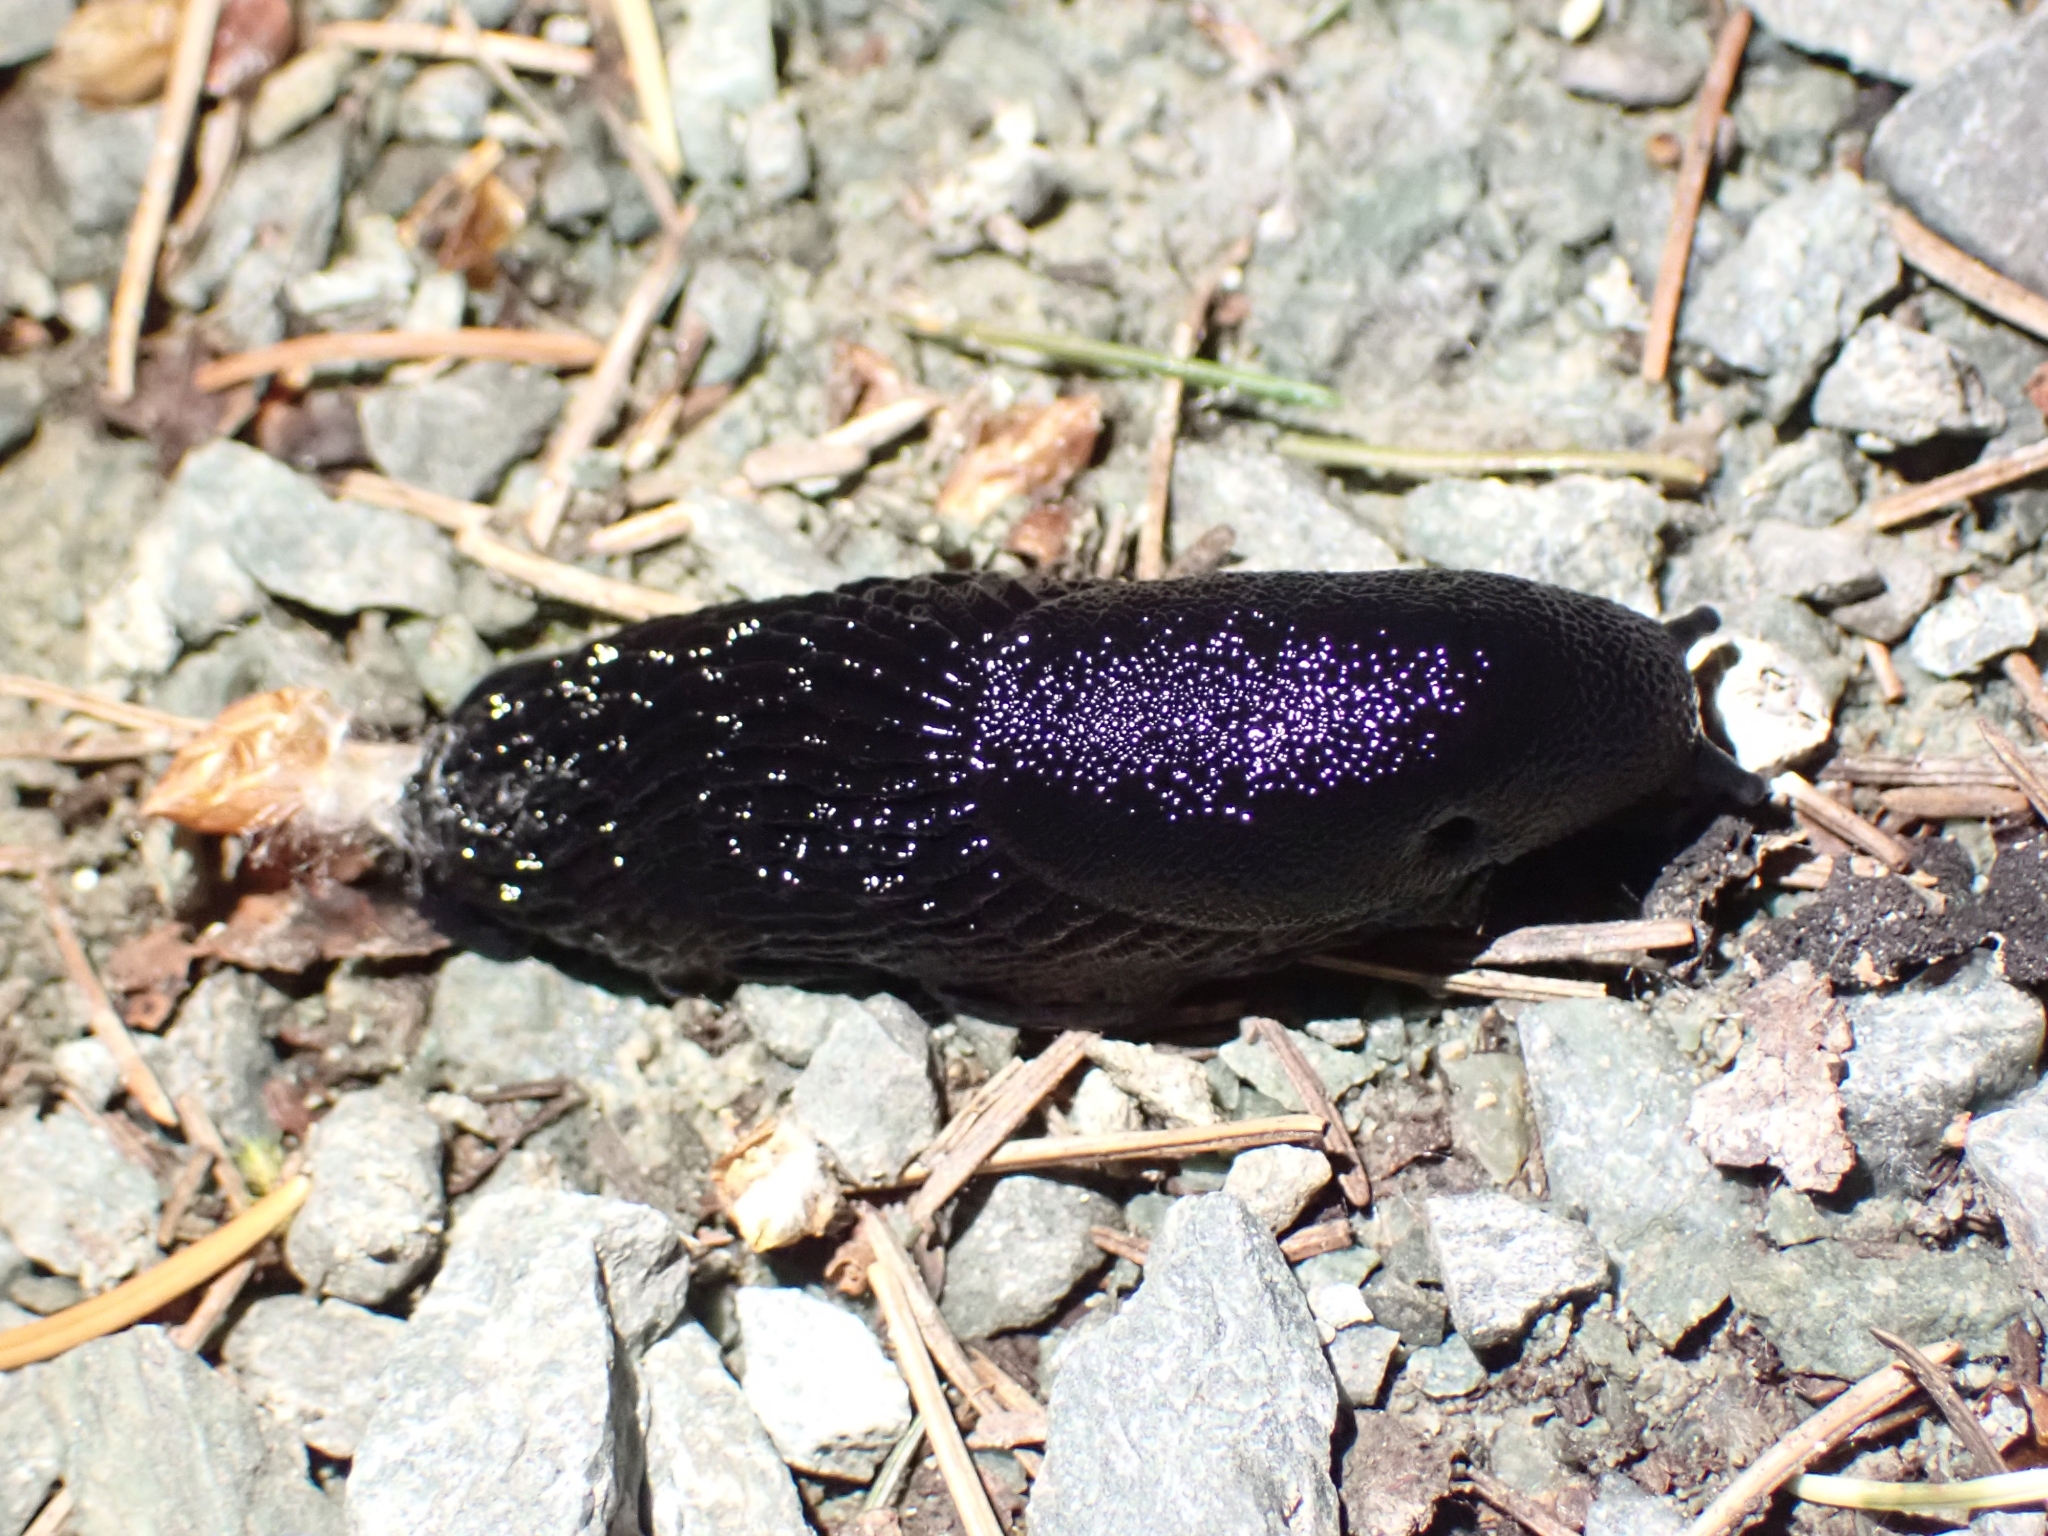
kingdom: Animalia
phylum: Mollusca
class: Gastropoda
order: Stylommatophora
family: Arionidae
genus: Arion
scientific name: Arion
